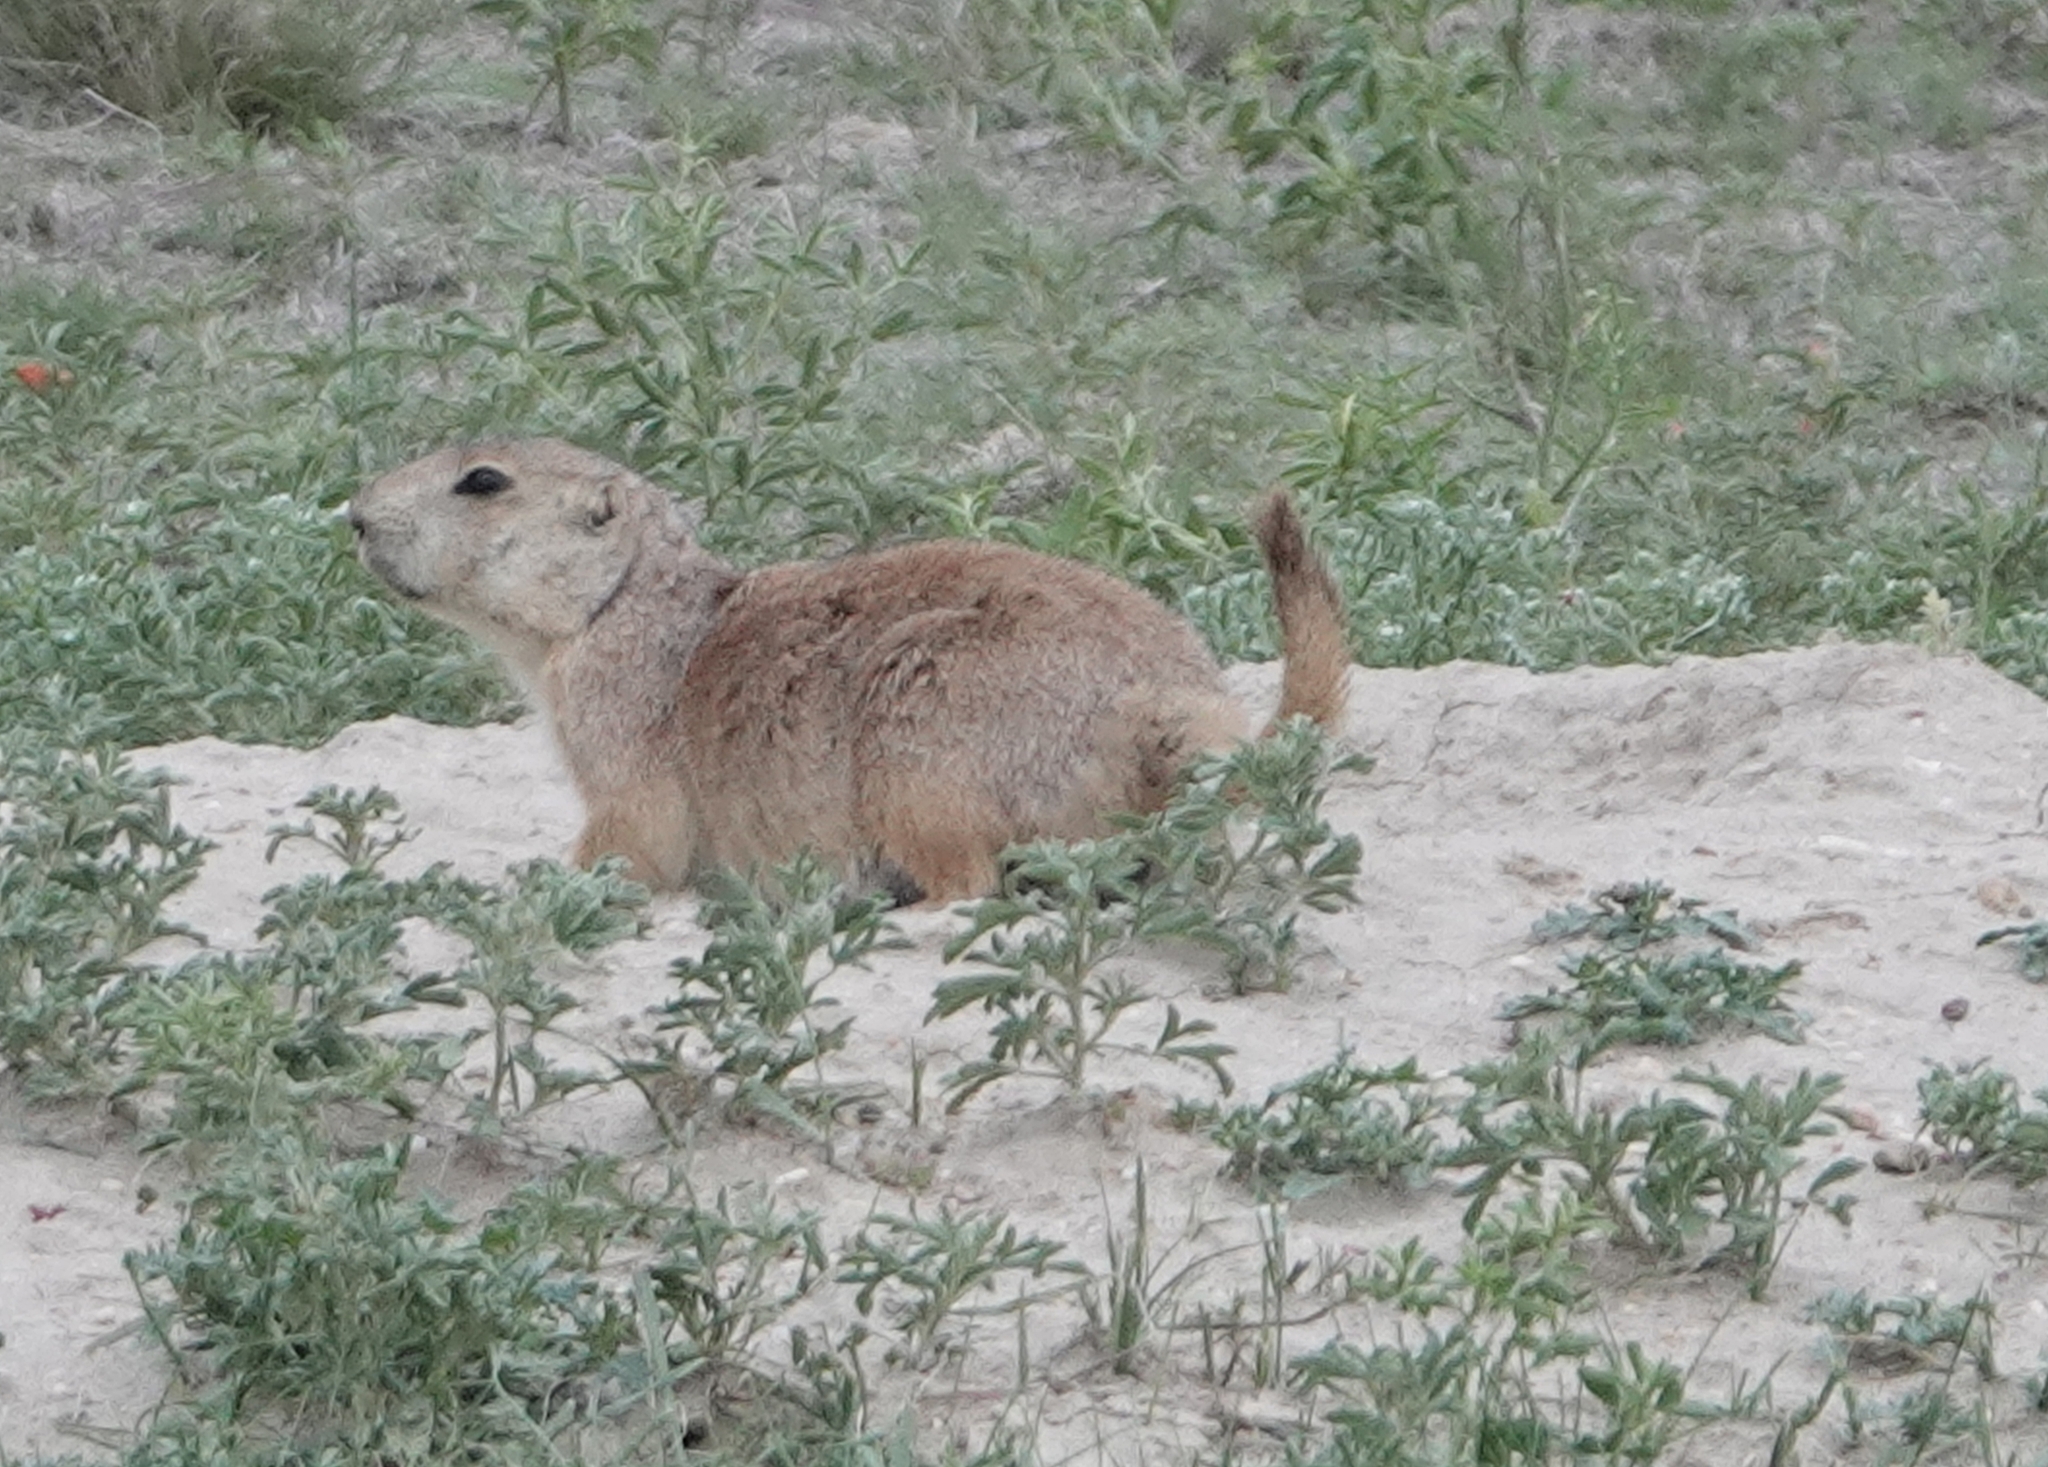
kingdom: Animalia
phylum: Chordata
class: Mammalia
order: Rodentia
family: Sciuridae
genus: Cynomys
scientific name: Cynomys ludovicianus
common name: Black-tailed prairie dog
